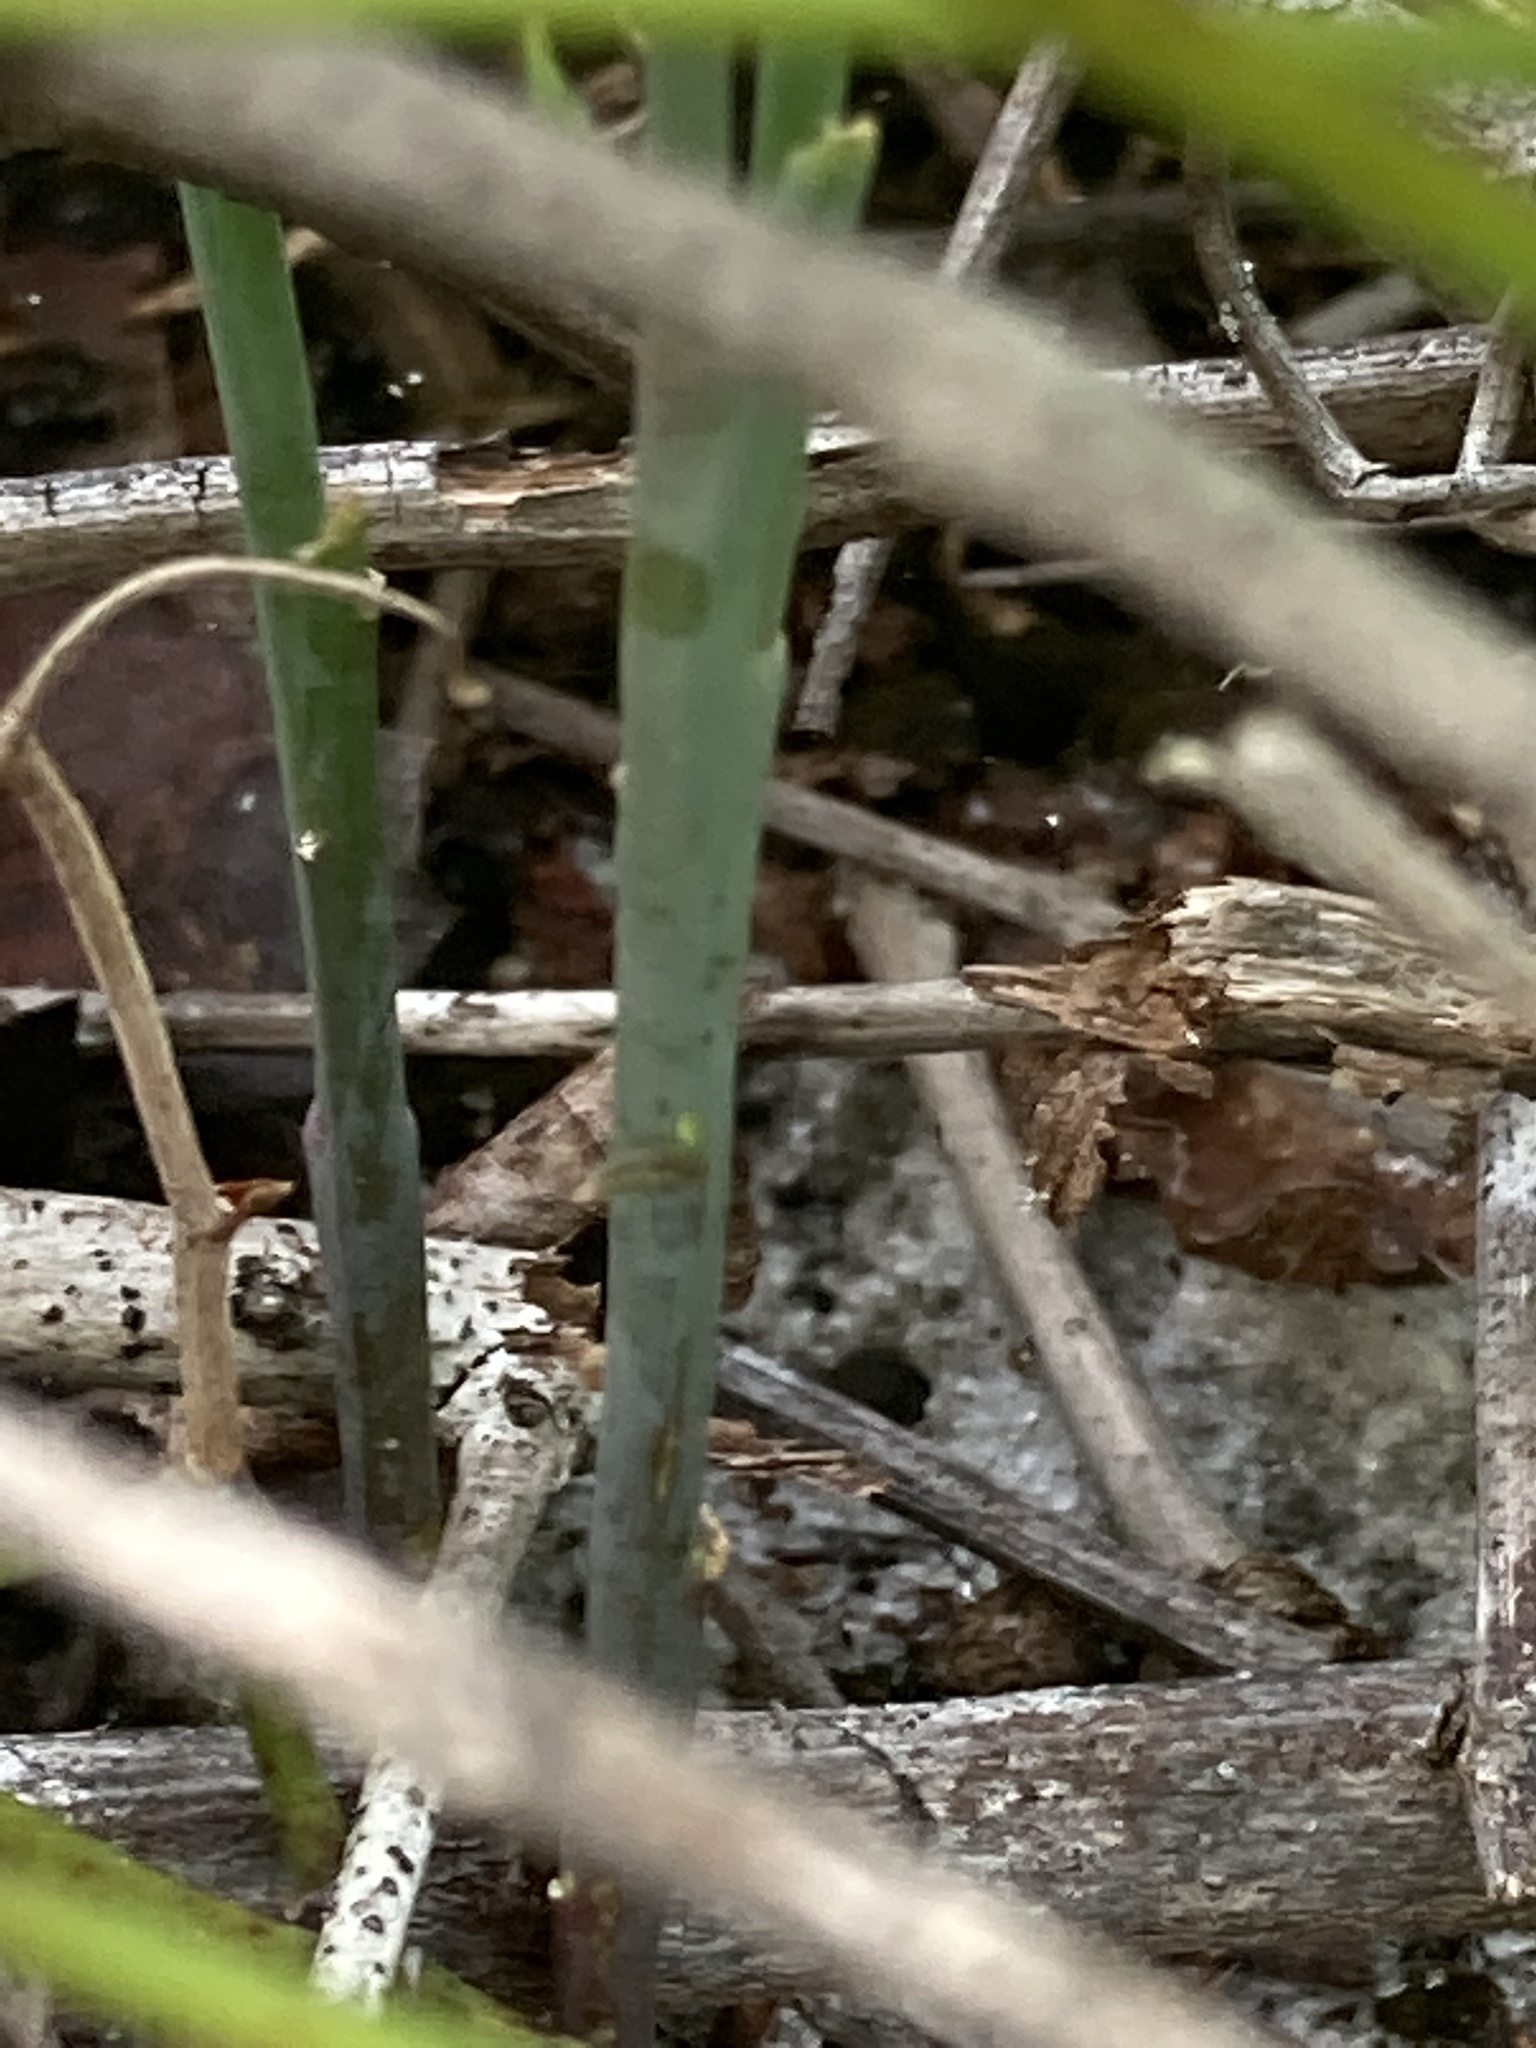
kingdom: Plantae
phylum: Tracheophyta
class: Magnoliopsida
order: Fabales
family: Polygalaceae
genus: Polygala
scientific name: Polygala incarnata
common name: Pink milkwort
